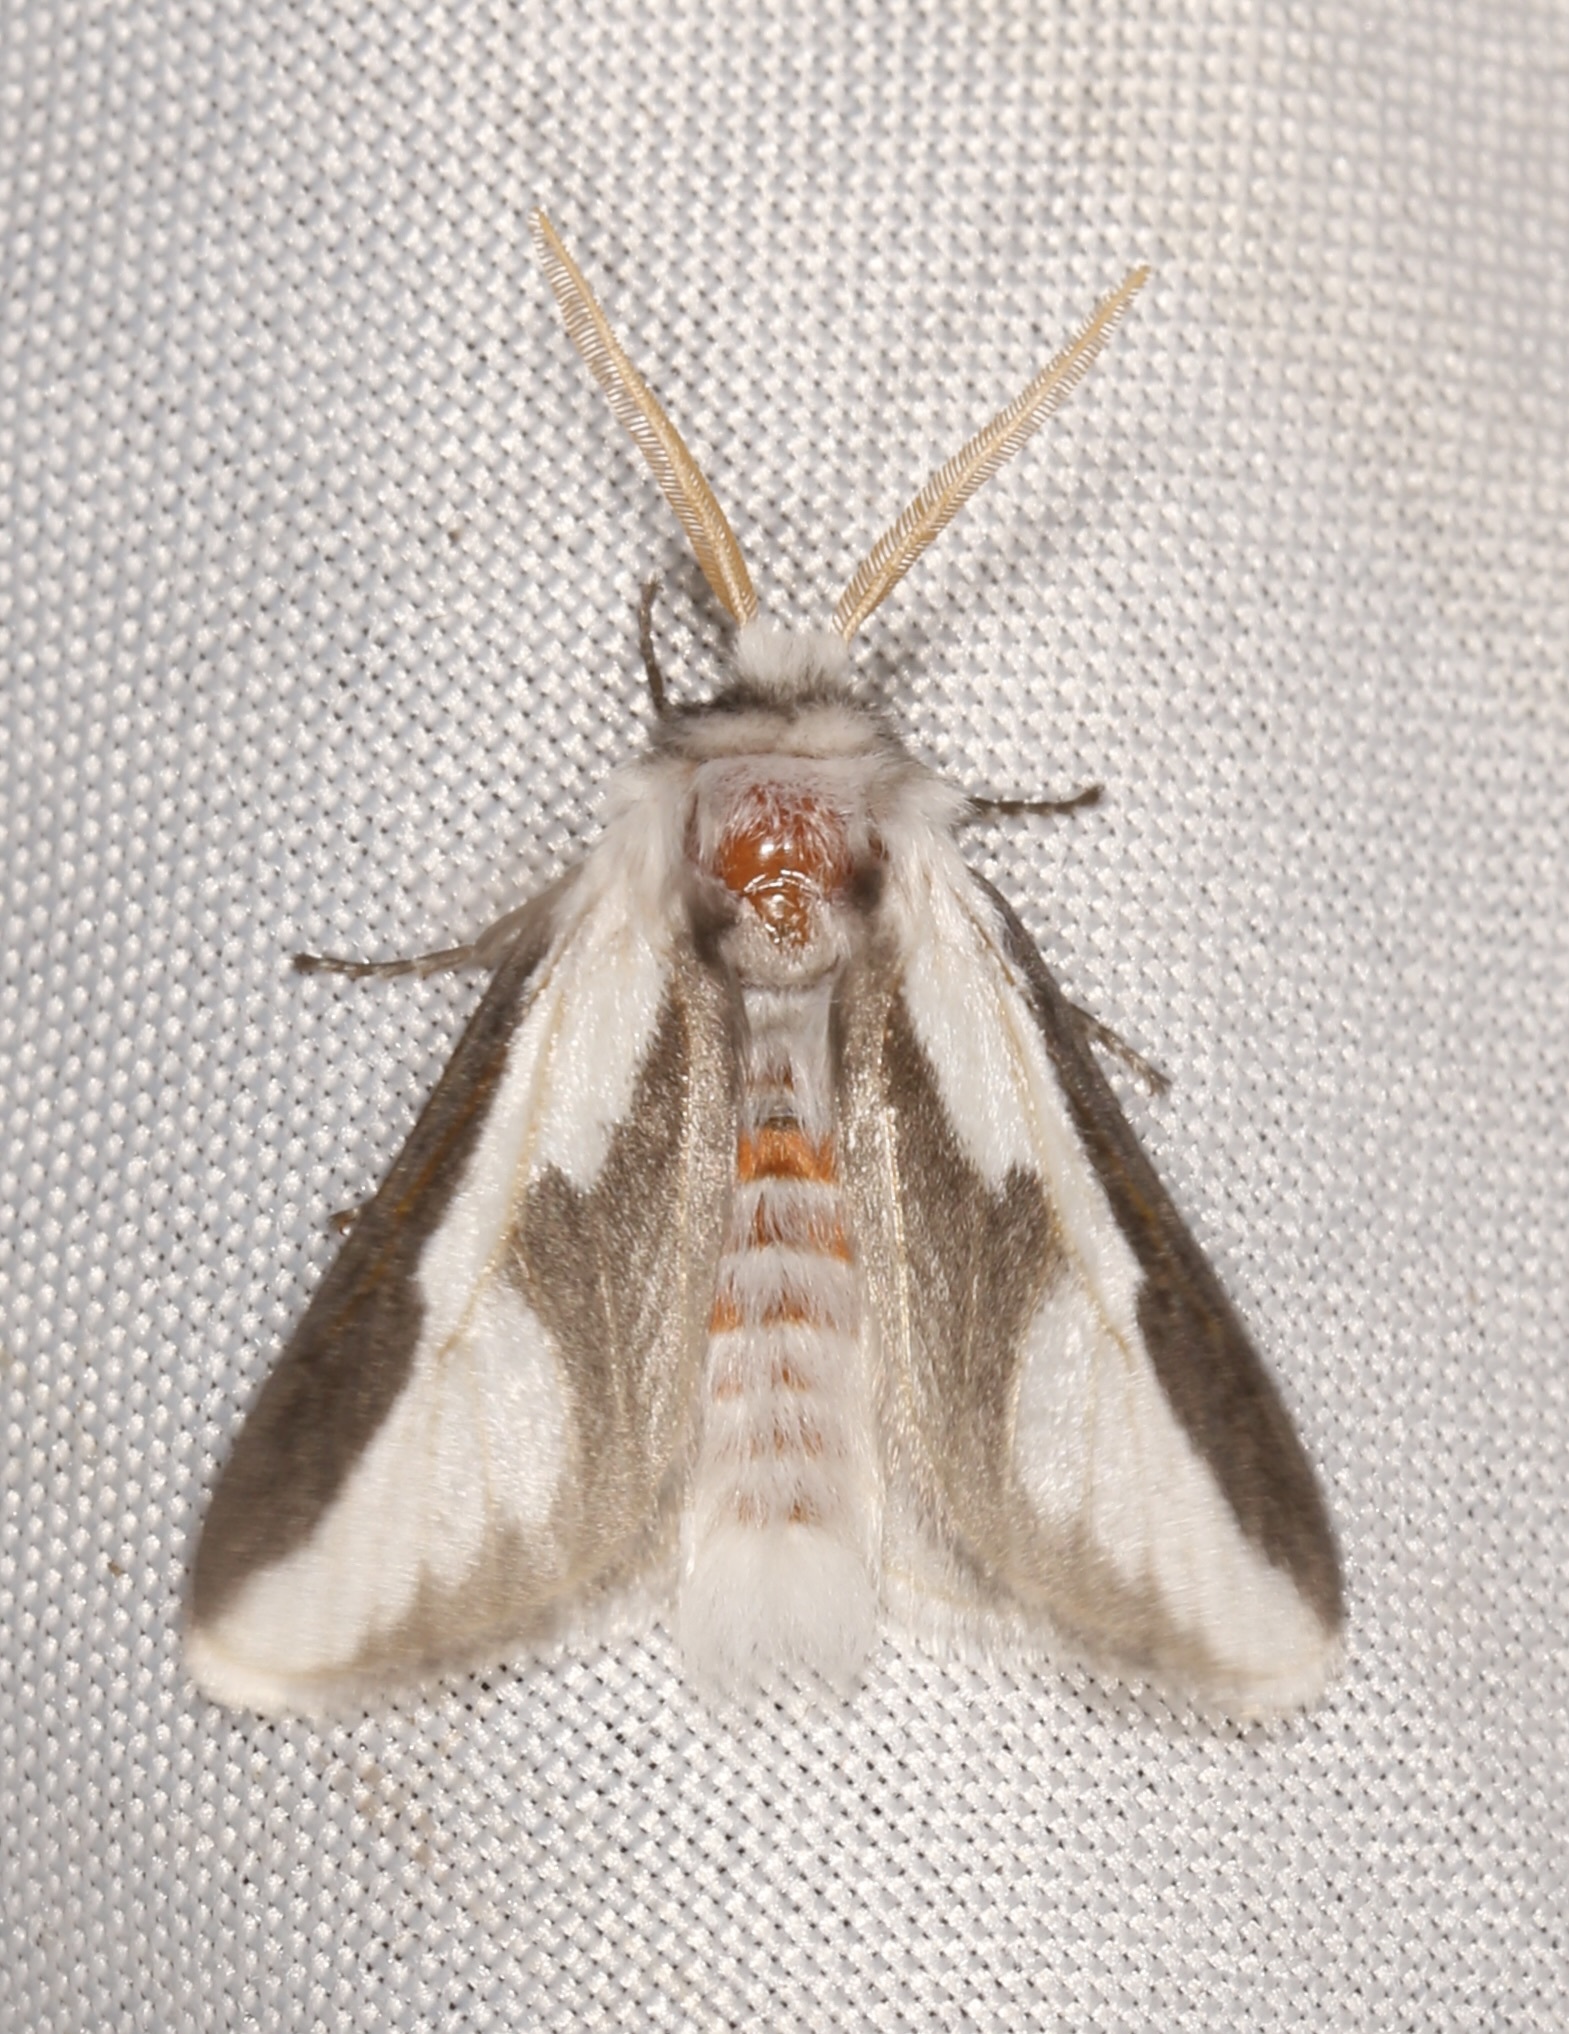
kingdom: Animalia
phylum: Arthropoda
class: Insecta
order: Lepidoptera
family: Megalopygidae
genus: Norape
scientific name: Norape tener
